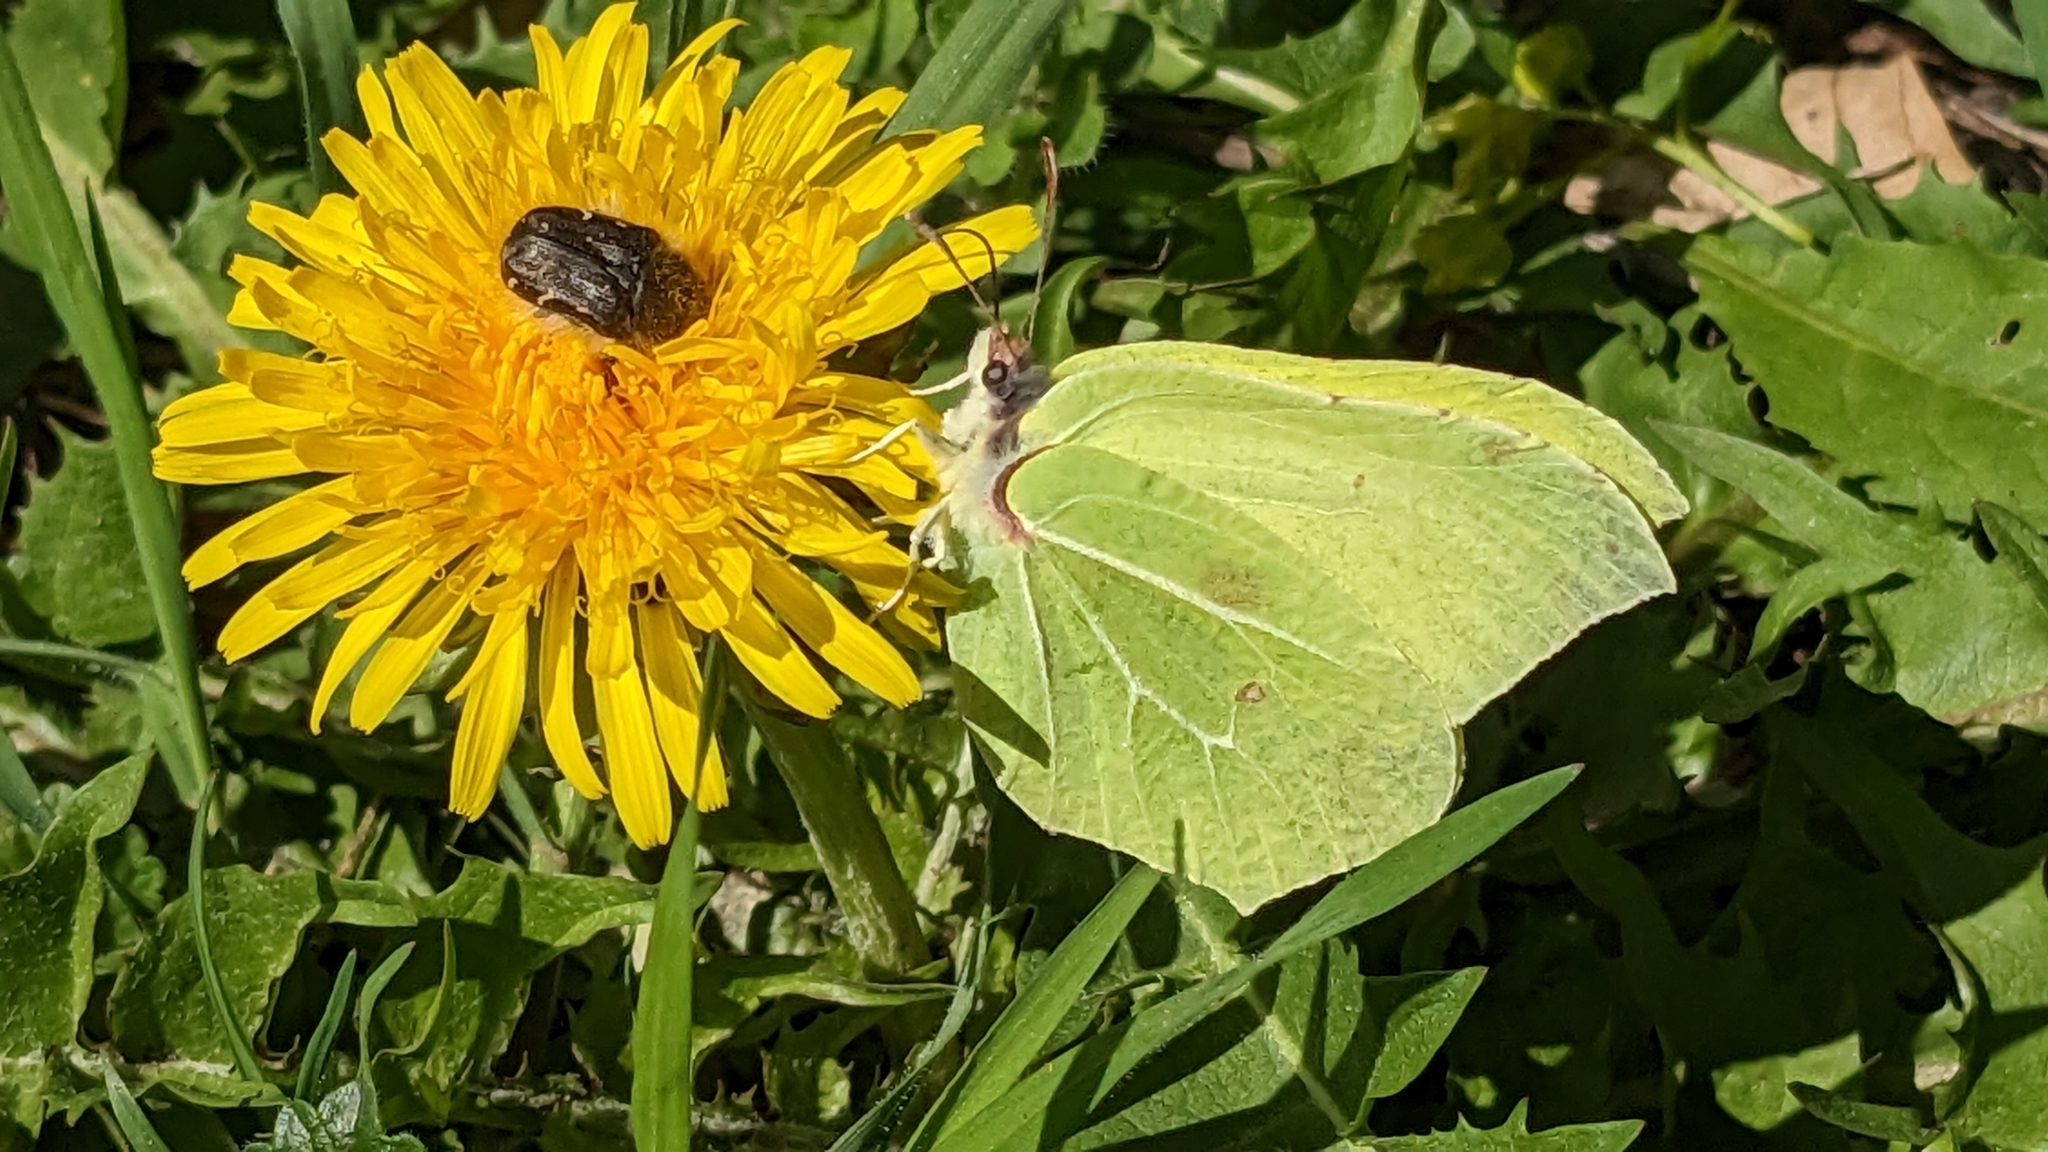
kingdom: Animalia
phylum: Arthropoda
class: Insecta
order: Lepidoptera
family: Pieridae
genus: Gonepteryx
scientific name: Gonepteryx rhamni
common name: Brimstone
